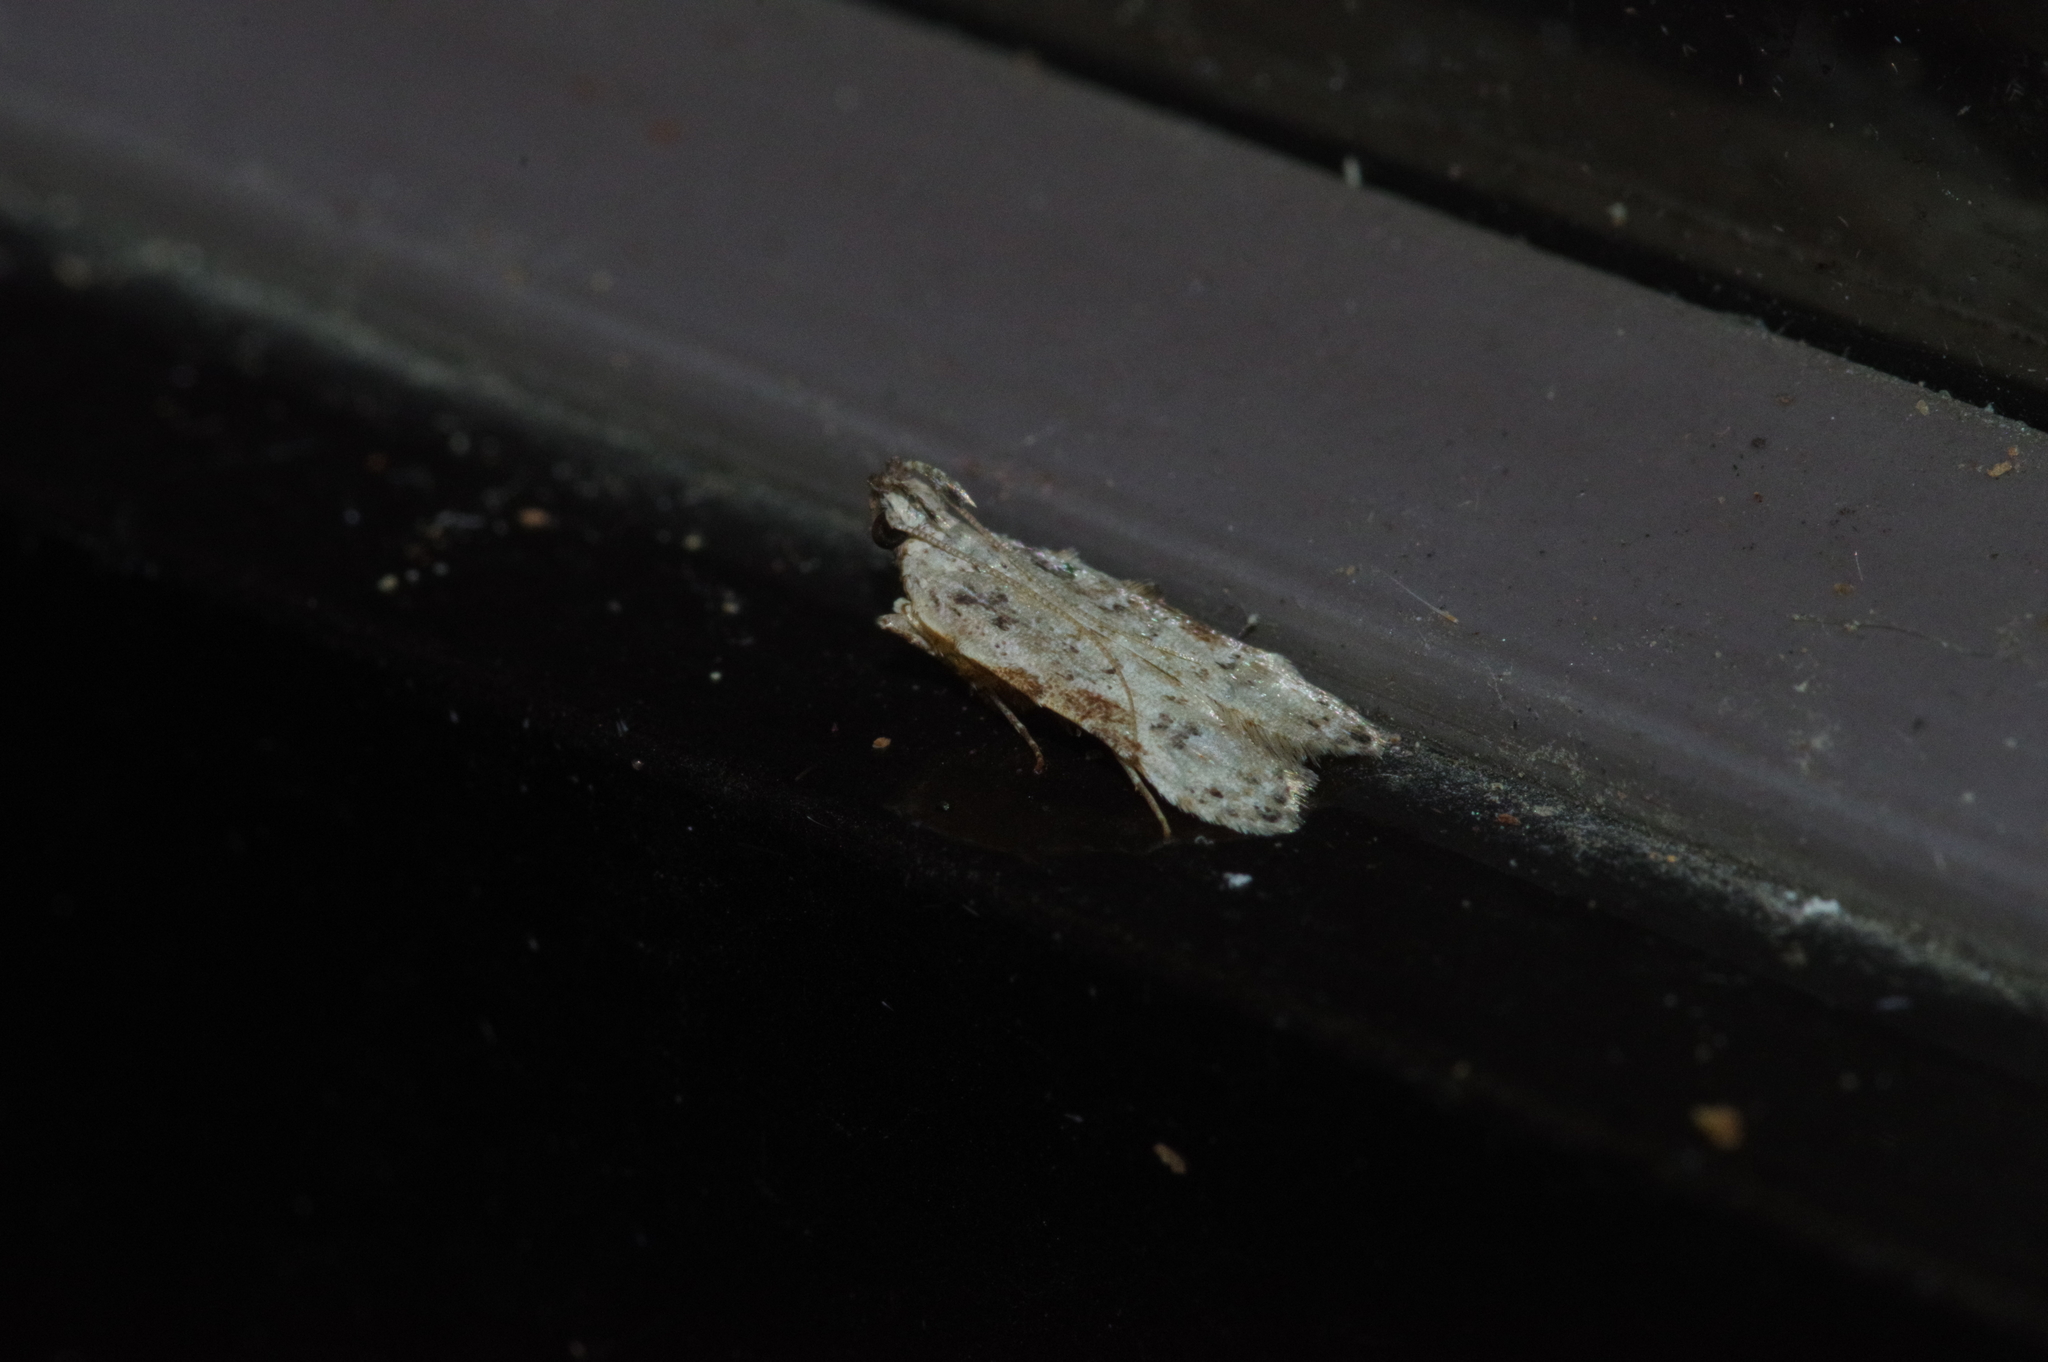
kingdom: Animalia
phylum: Arthropoda
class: Insecta
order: Lepidoptera
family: Gelechiidae
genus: Tituacia
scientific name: Tituacia deviella
